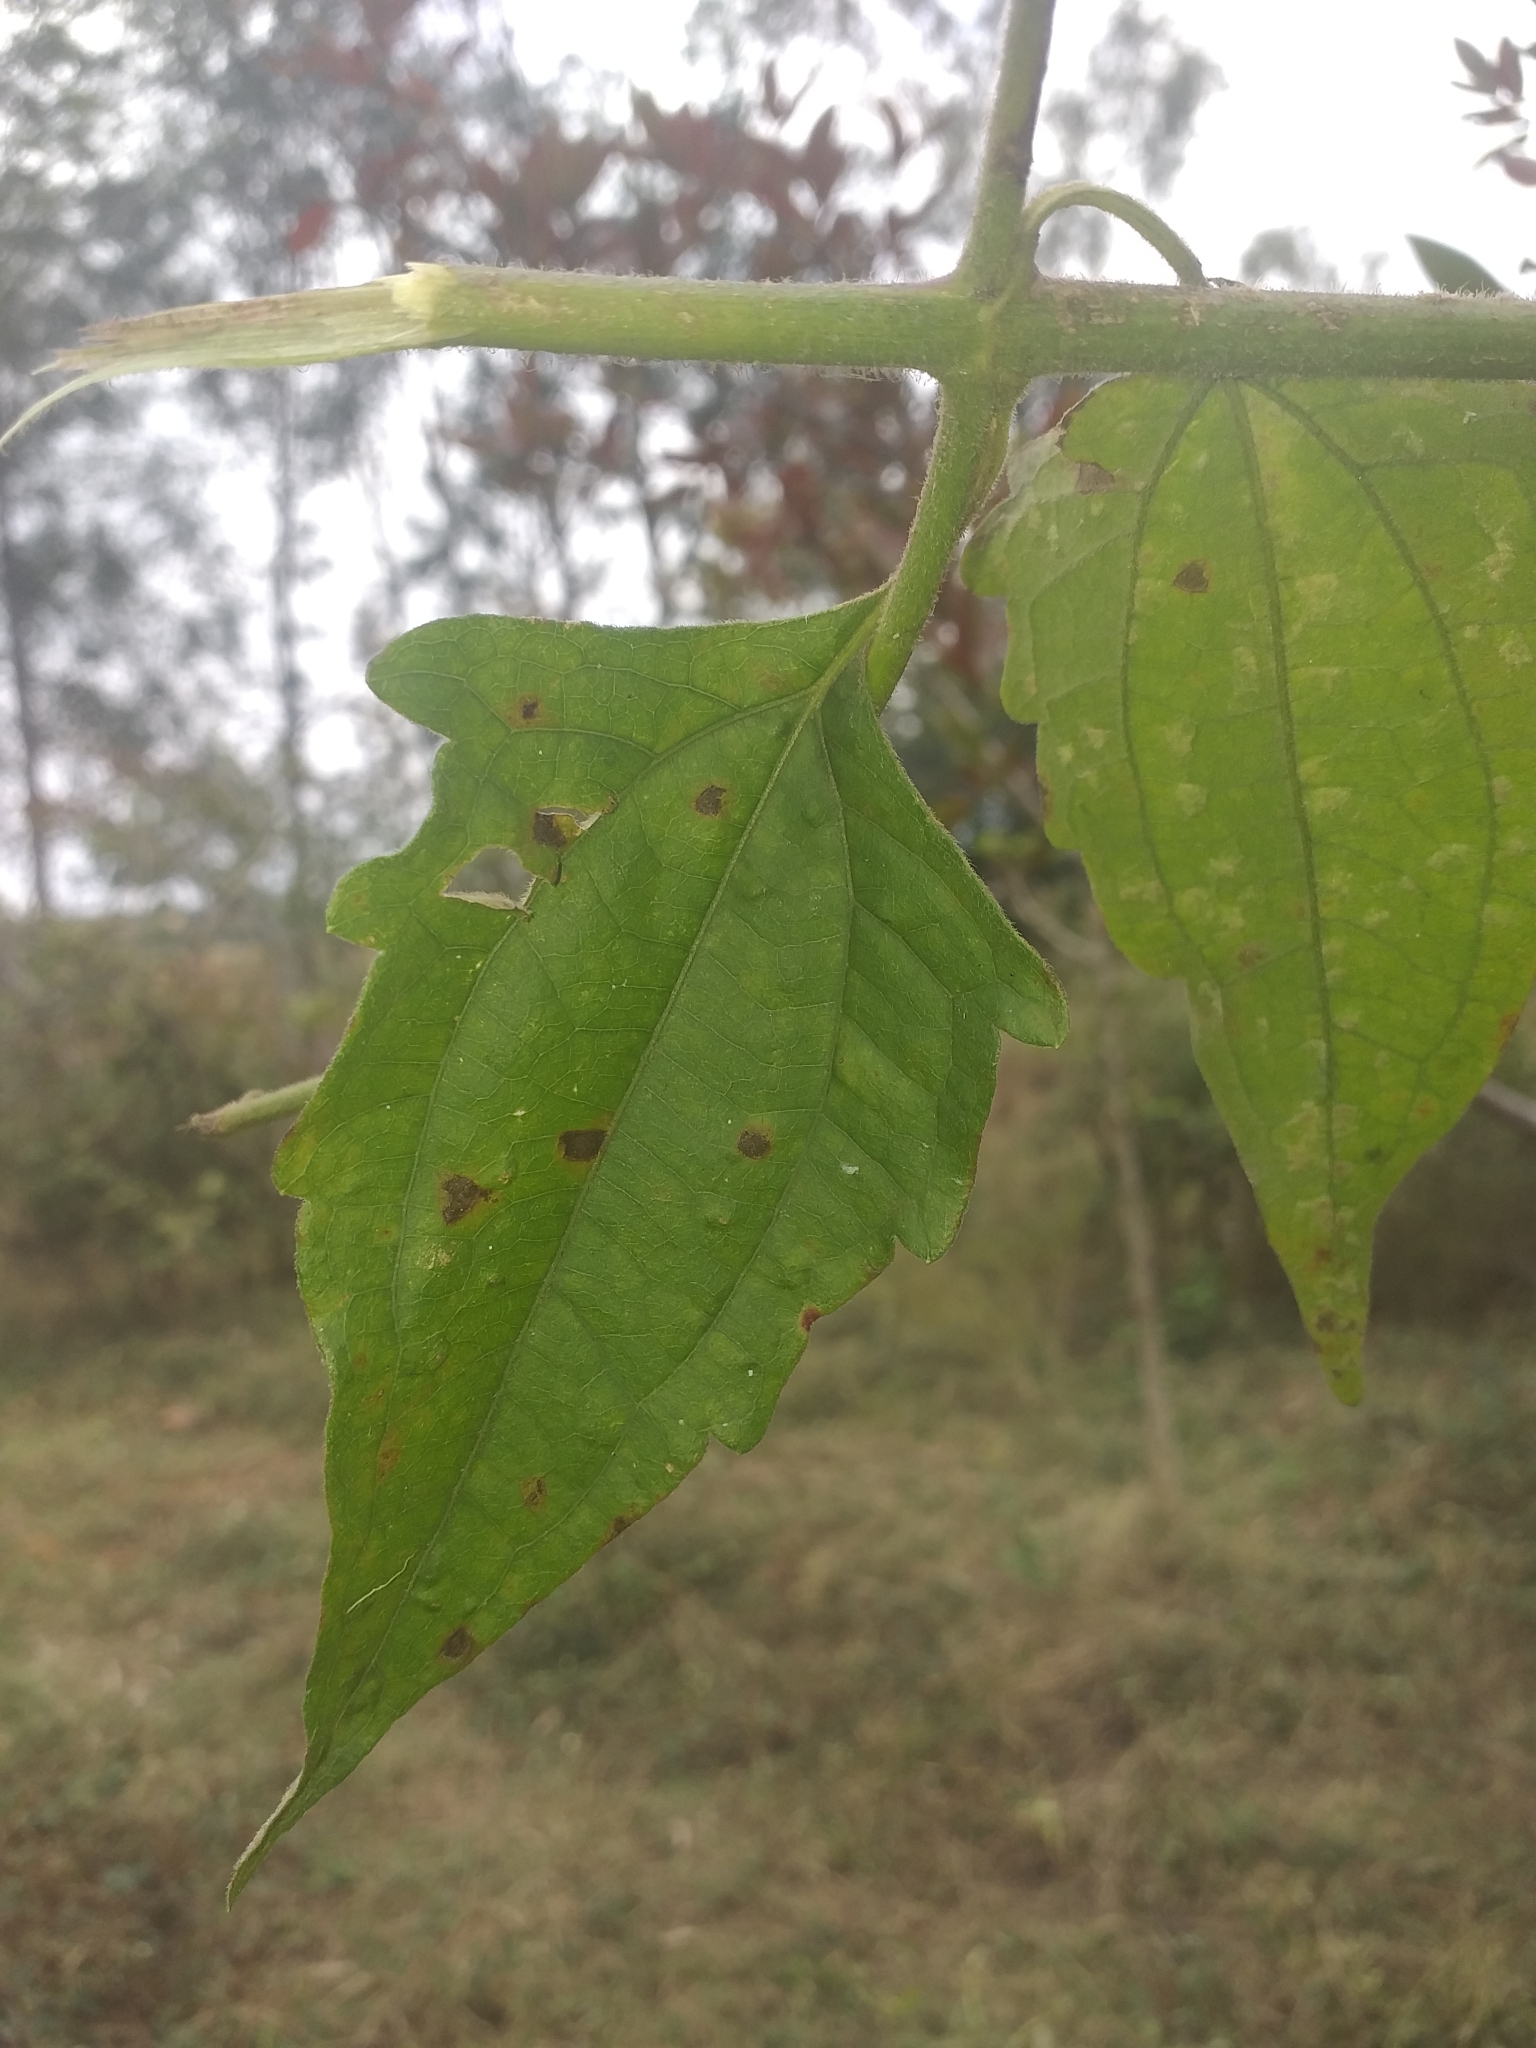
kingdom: Plantae
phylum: Tracheophyta
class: Magnoliopsida
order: Asterales
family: Asteraceae
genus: Chromolaena
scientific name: Chromolaena odorata
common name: Siamweed
